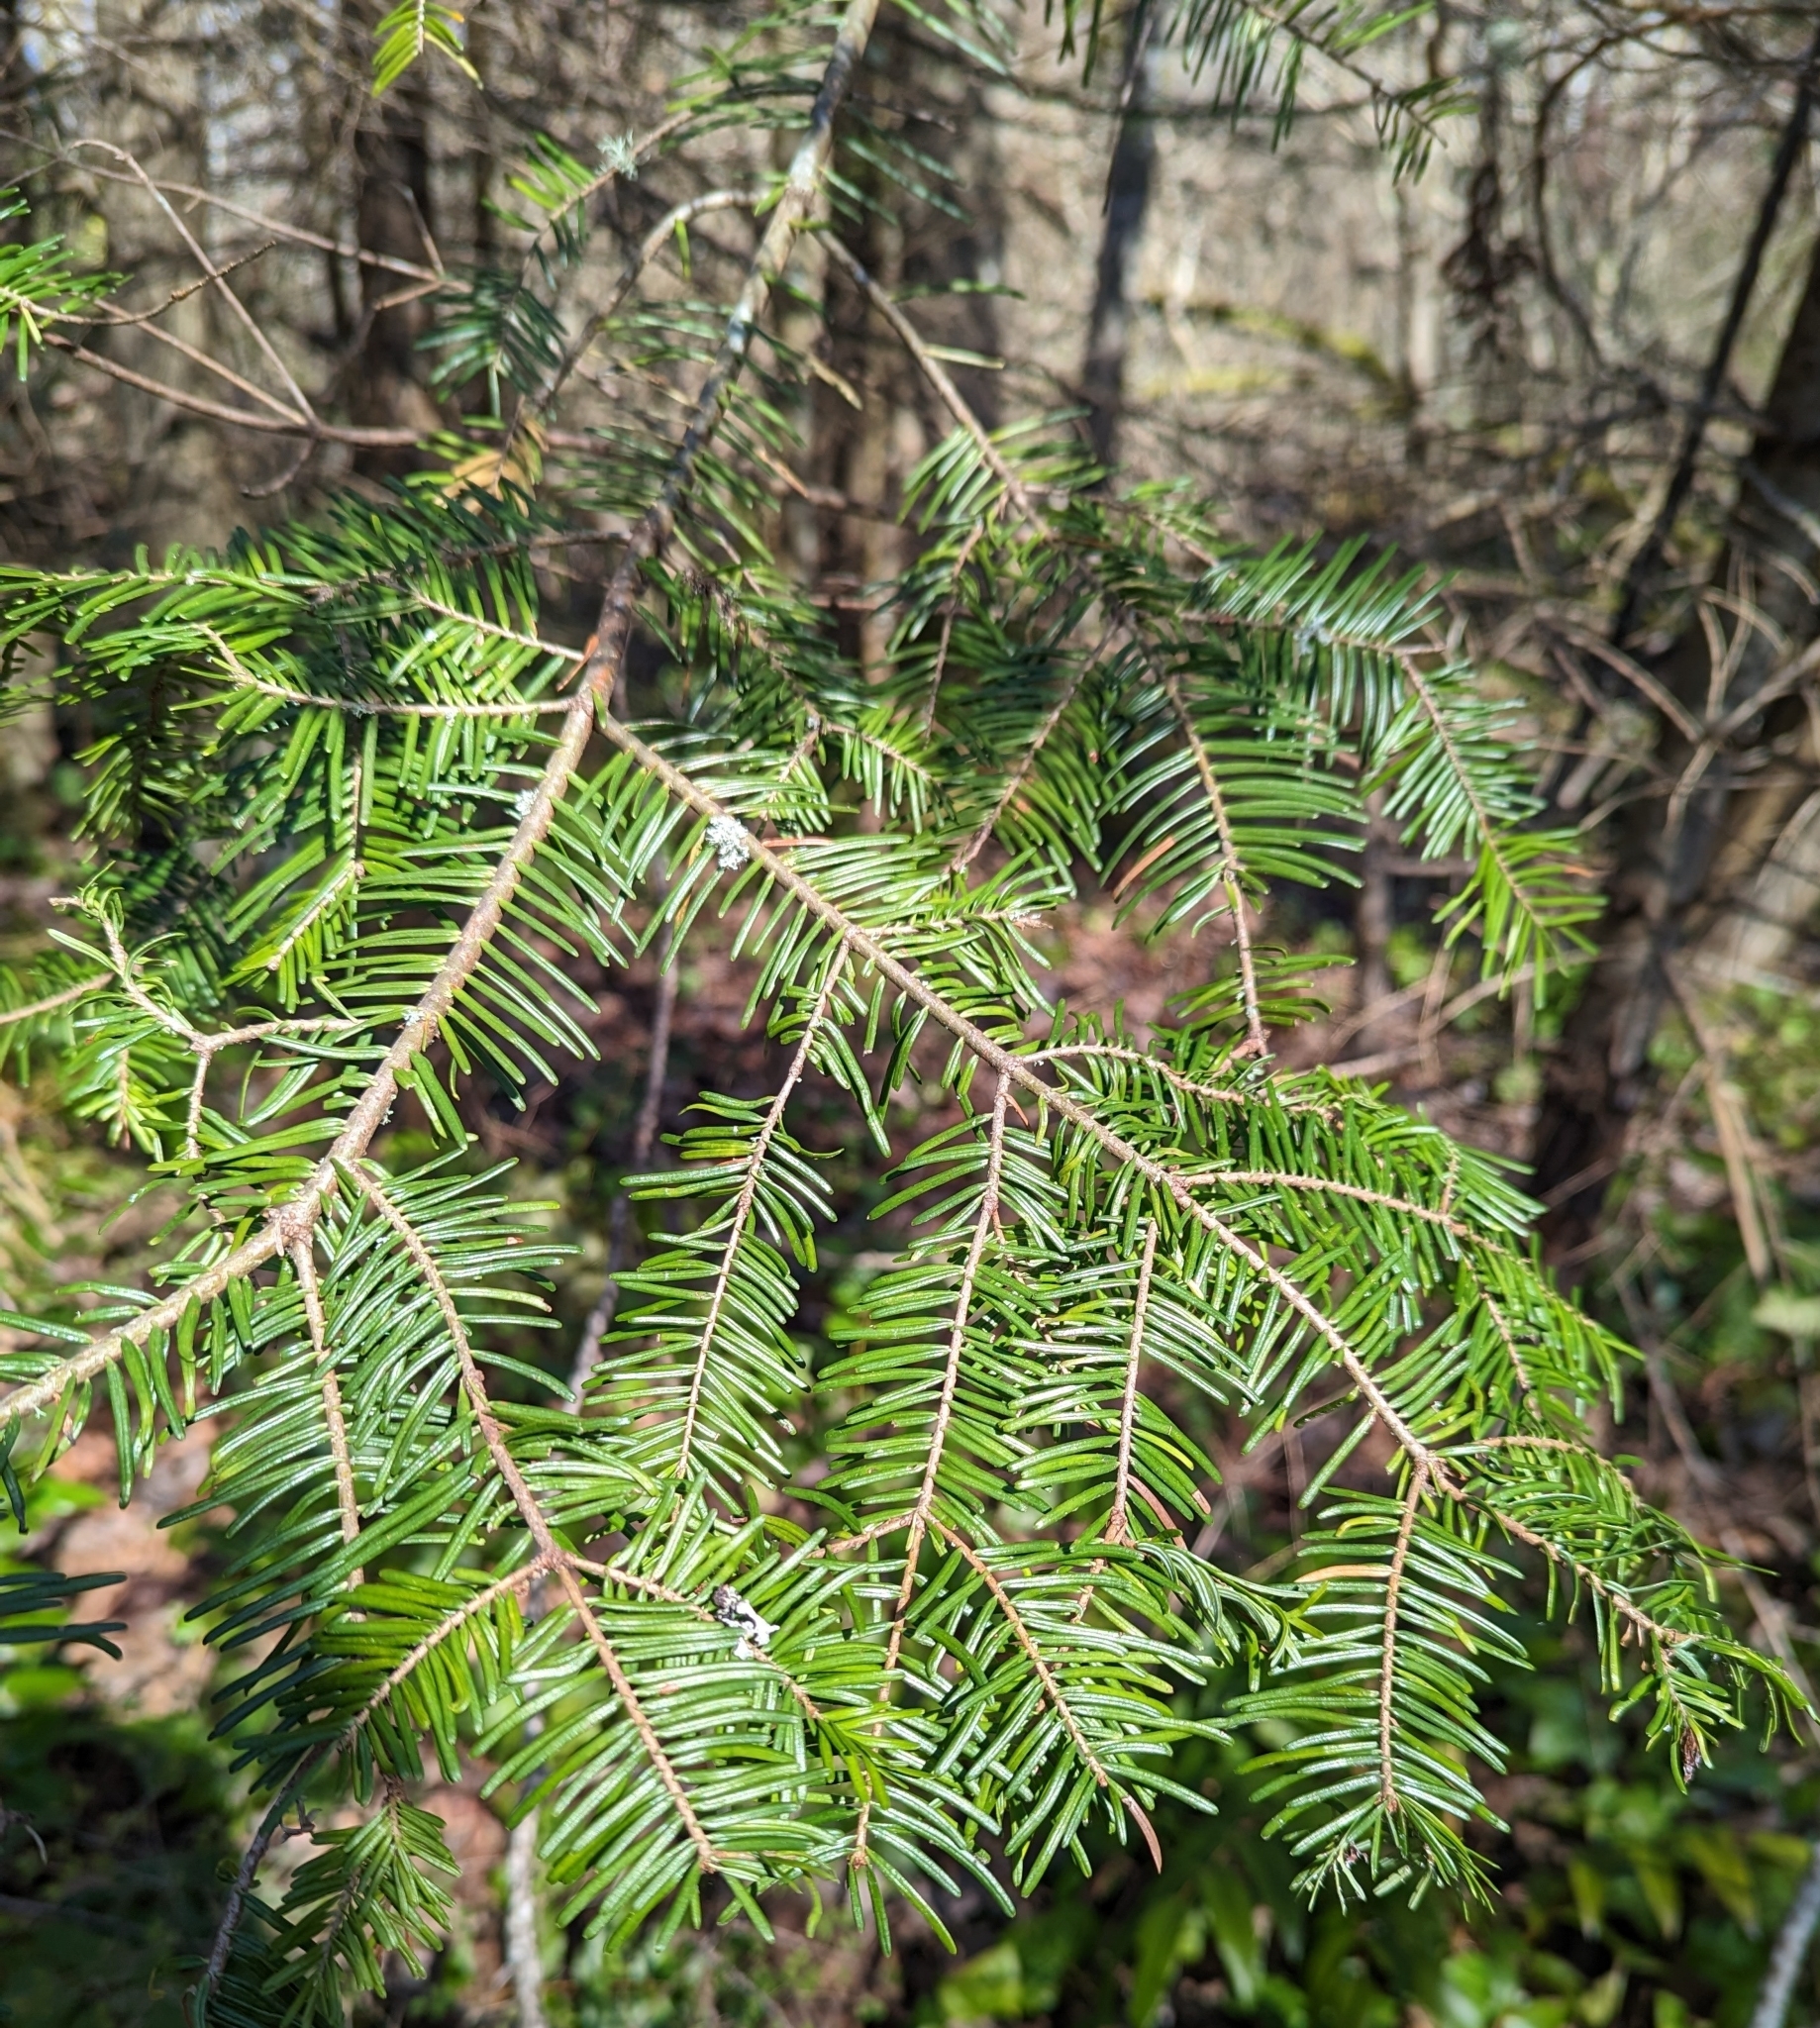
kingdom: Plantae
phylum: Tracheophyta
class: Pinopsida
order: Pinales
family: Pinaceae
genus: Abies
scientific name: Abies grandis
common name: Giant fir
